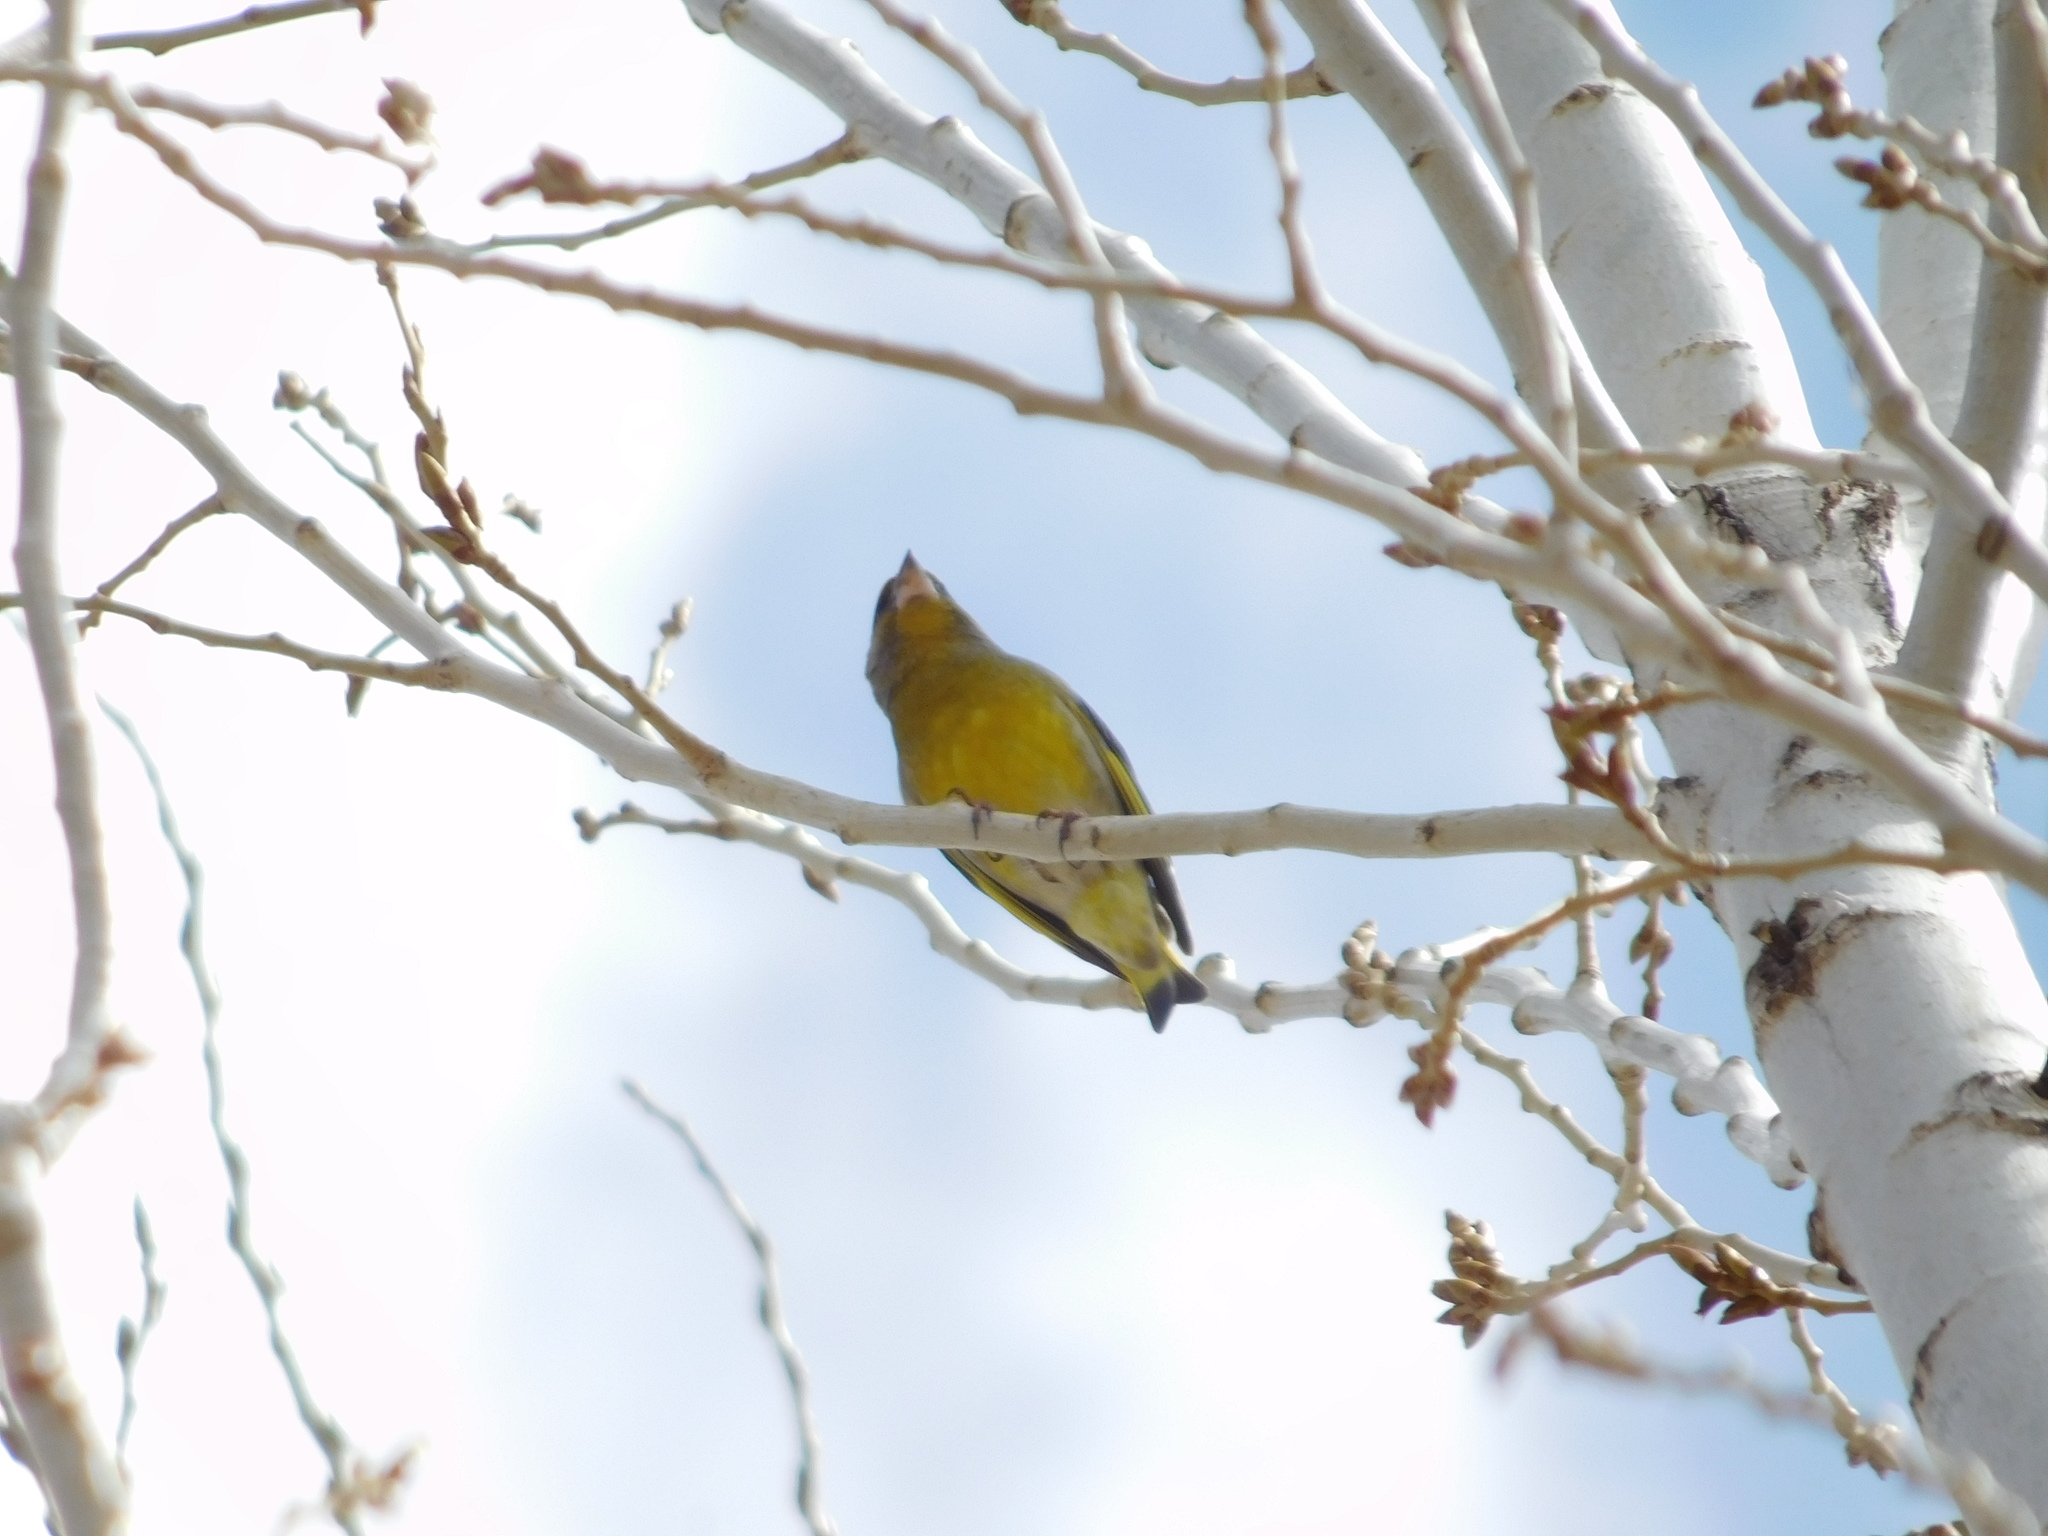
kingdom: Plantae
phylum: Tracheophyta
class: Liliopsida
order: Poales
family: Poaceae
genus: Chloris
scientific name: Chloris chloris
